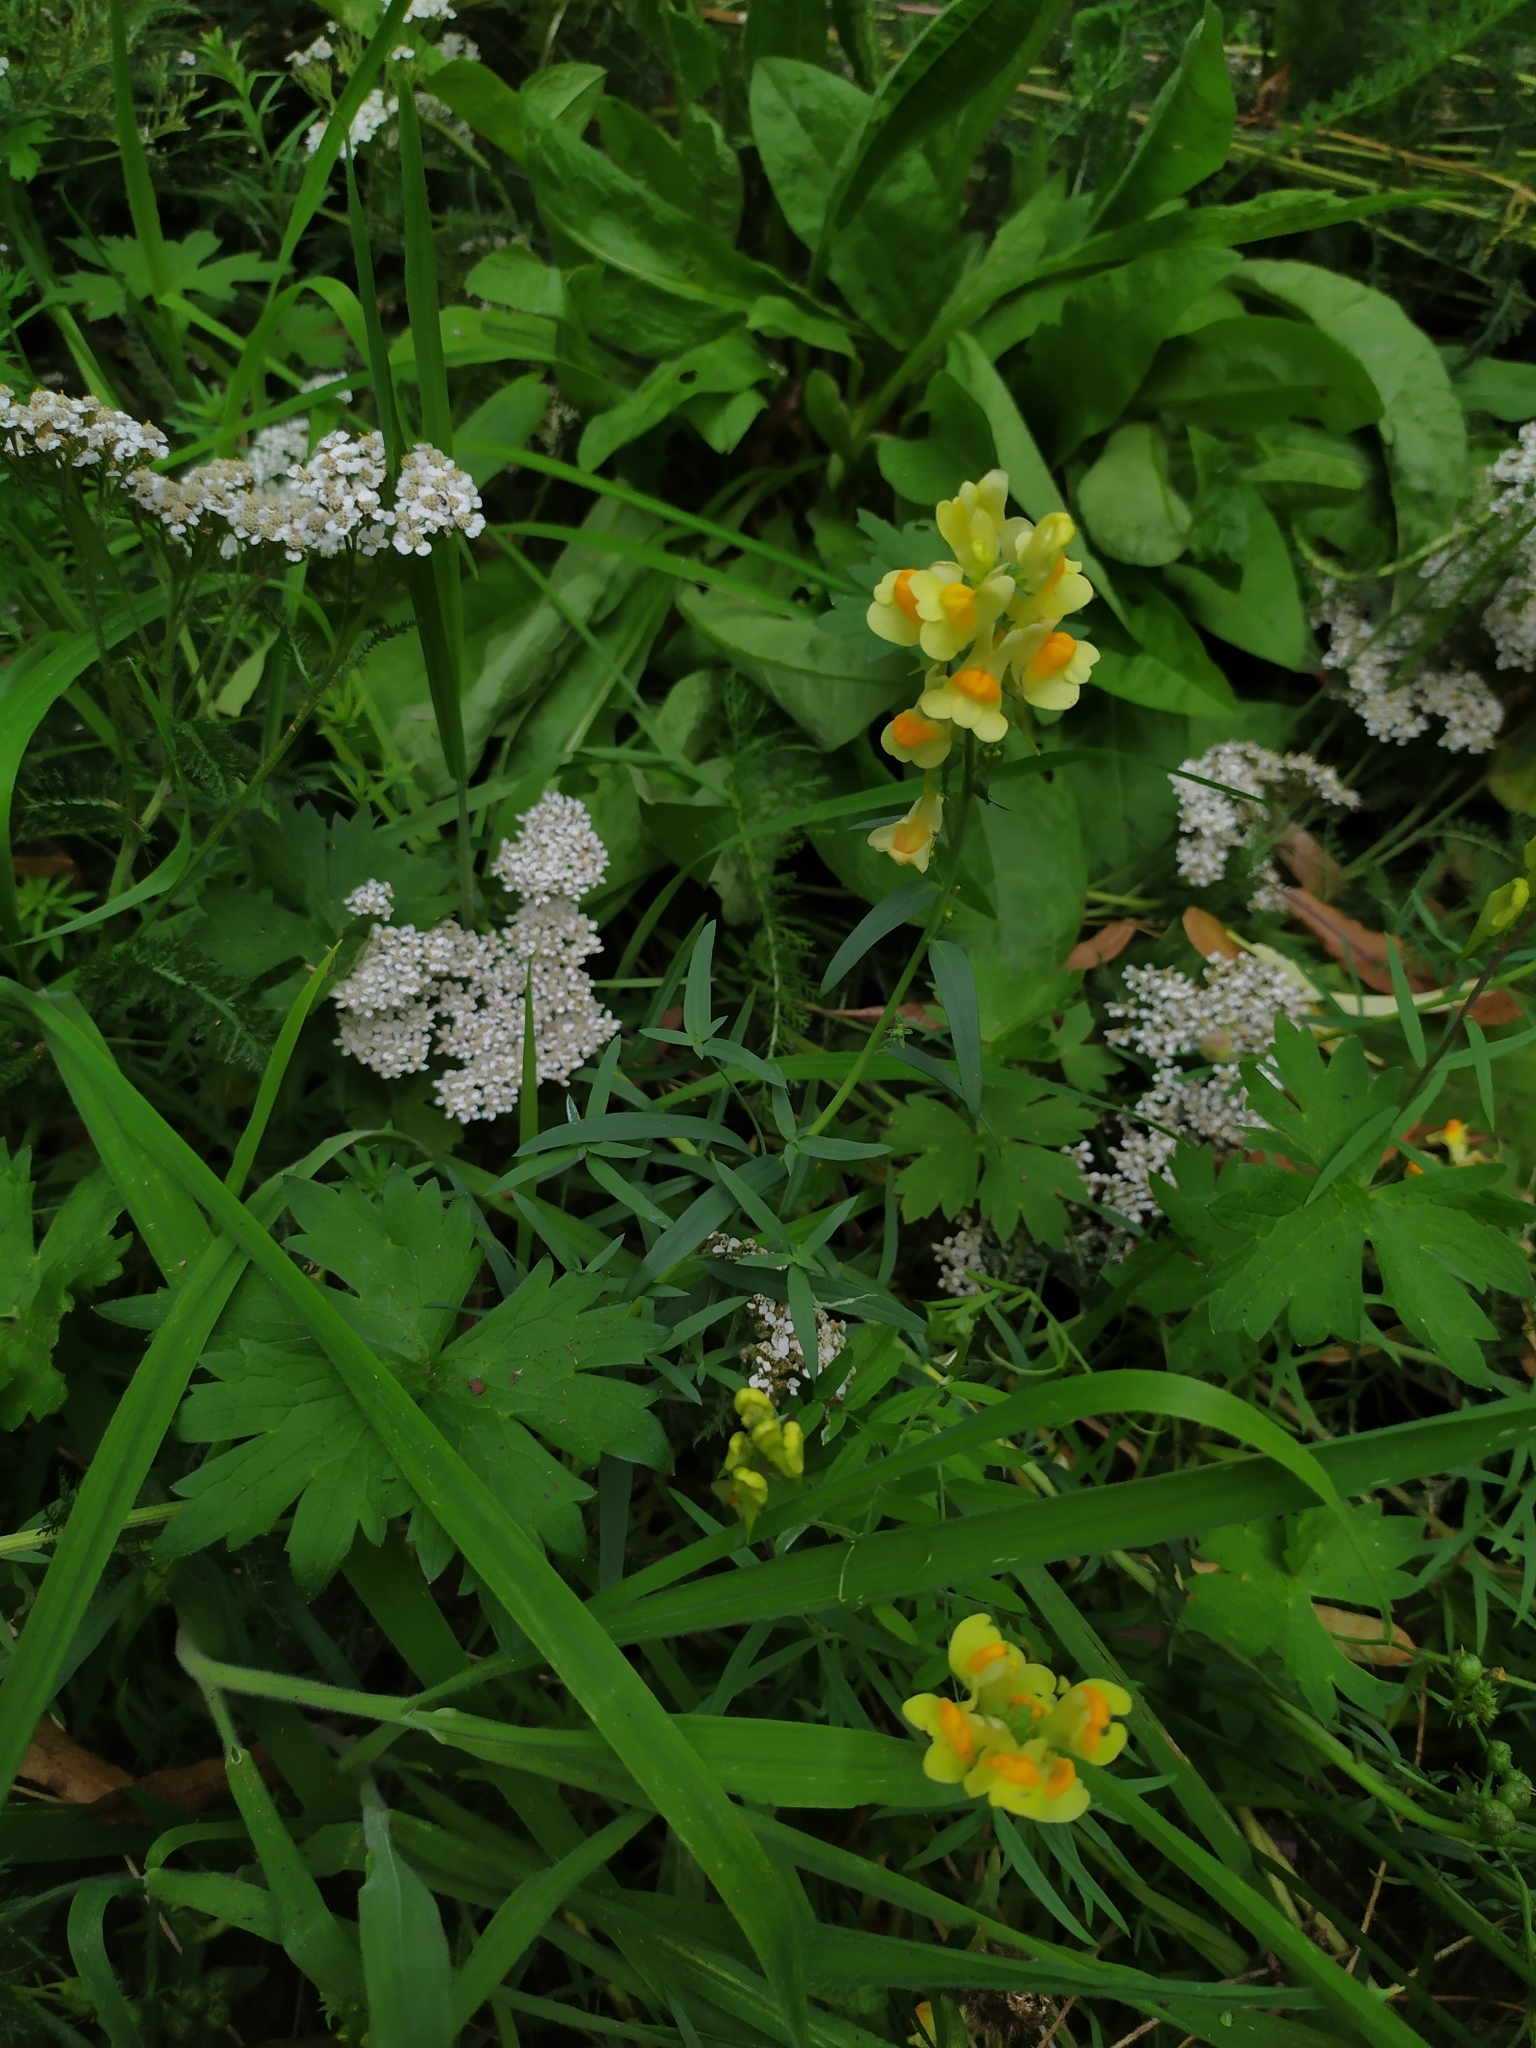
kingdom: Plantae
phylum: Tracheophyta
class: Magnoliopsida
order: Lamiales
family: Plantaginaceae
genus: Linaria
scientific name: Linaria vulgaris
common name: Butter and eggs
